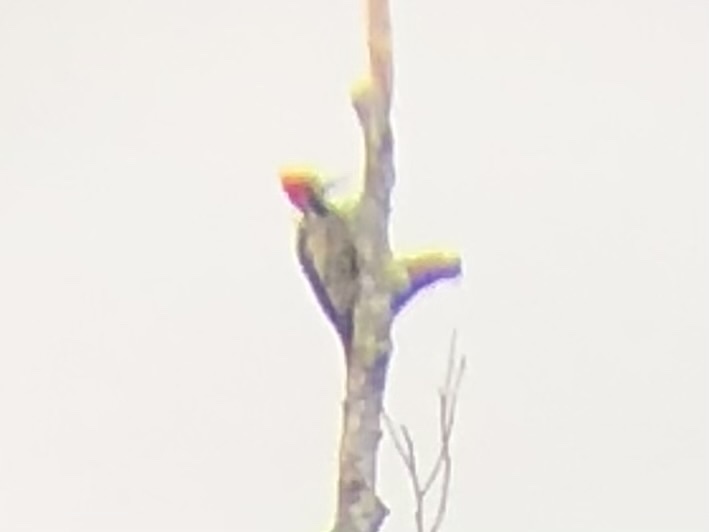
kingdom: Animalia
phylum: Chordata
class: Aves
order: Piciformes
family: Picidae
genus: Campephilus
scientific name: Campephilus melanoleucos
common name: Crimson-crested woodpecker
